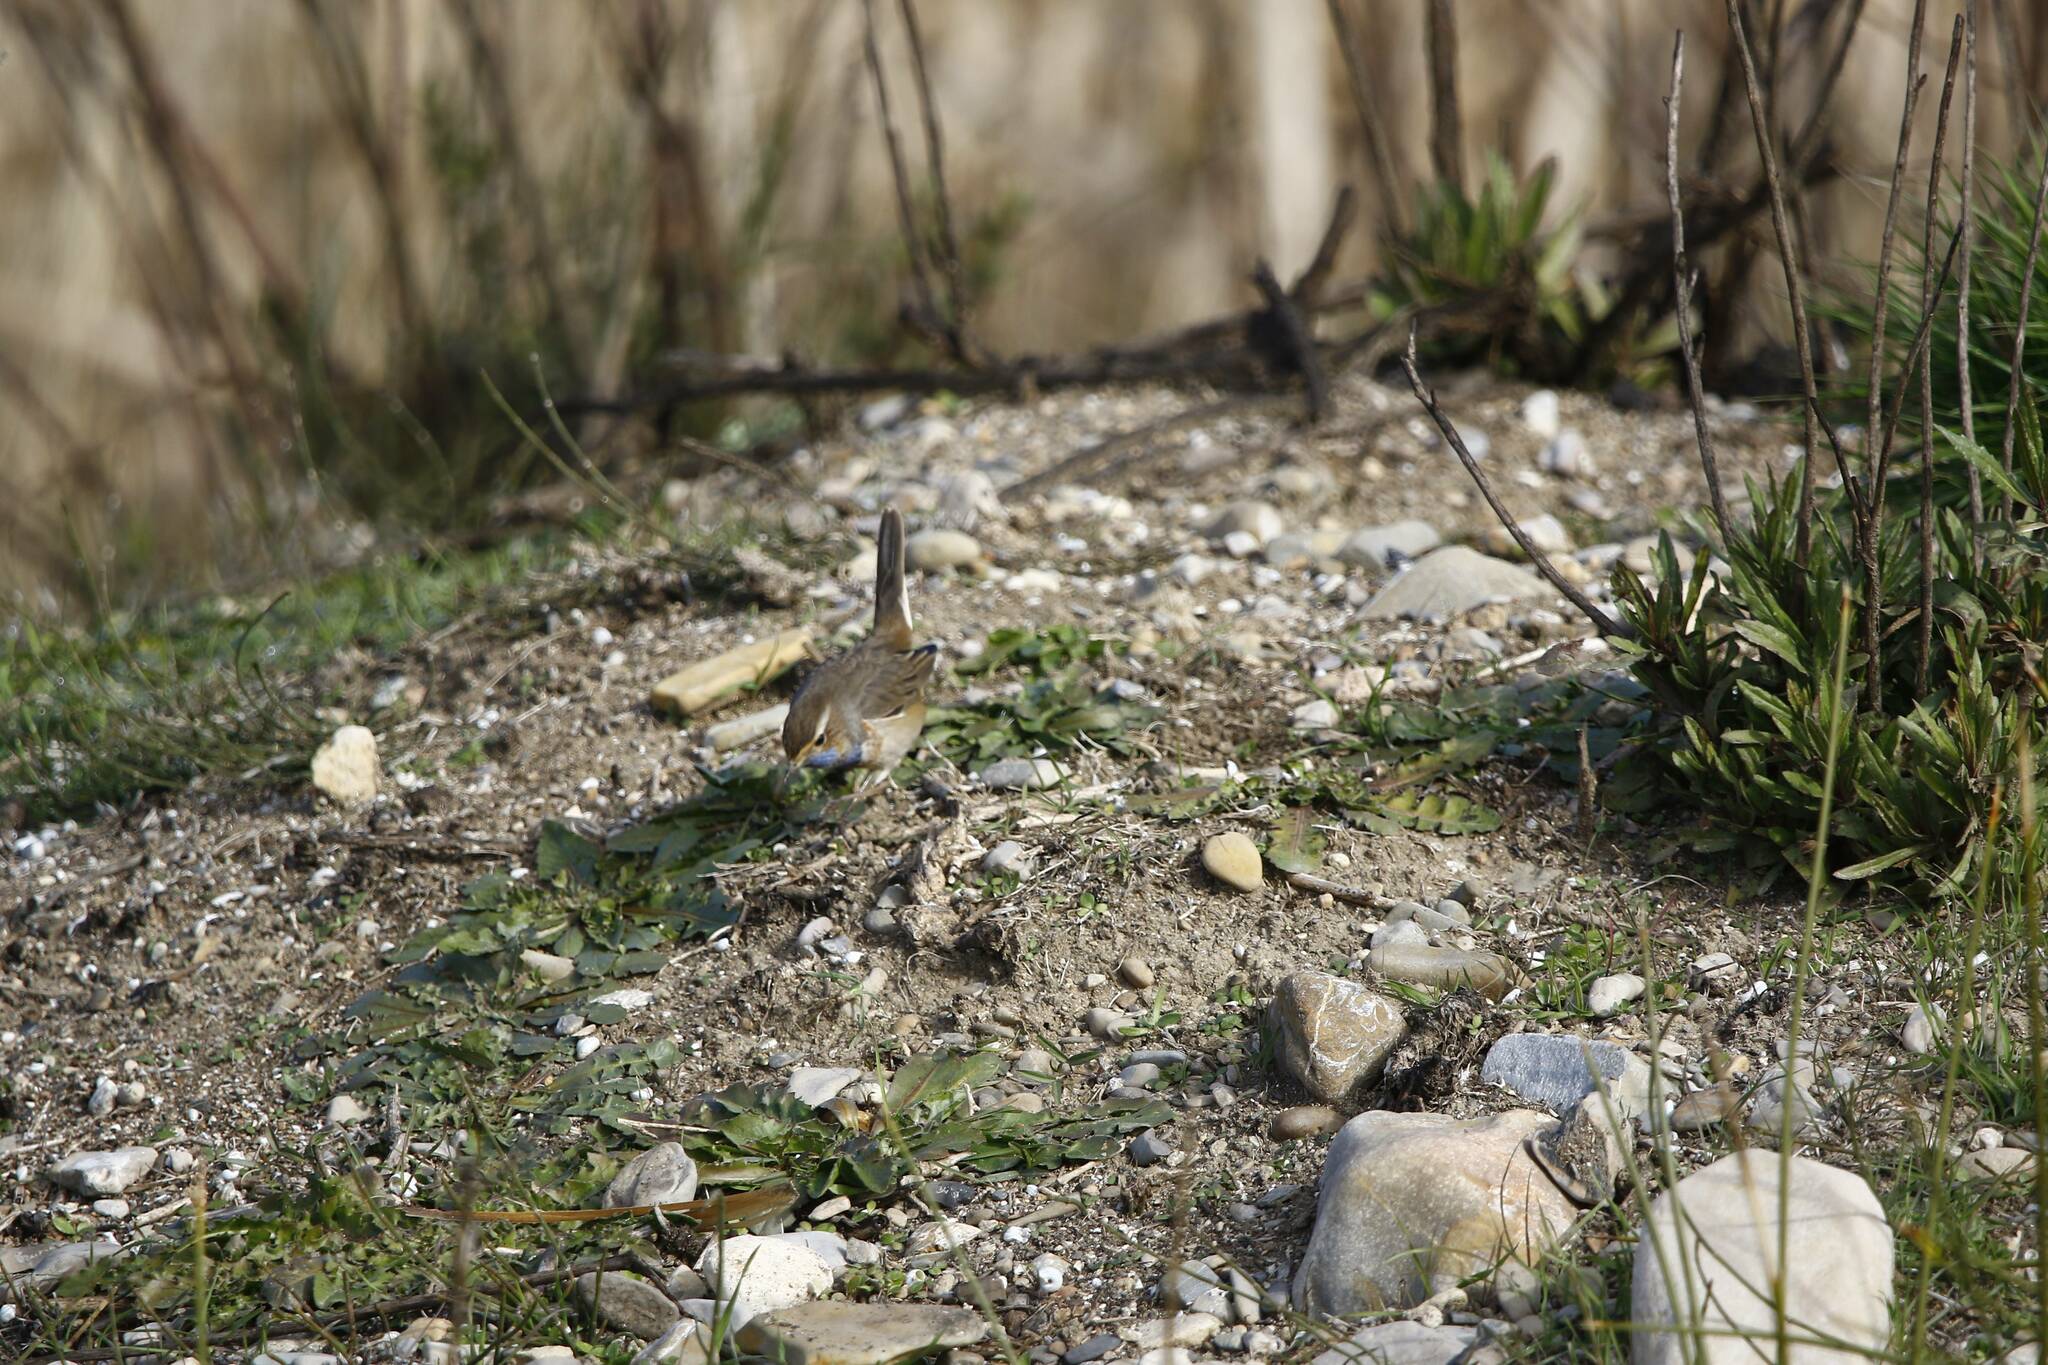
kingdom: Animalia
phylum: Chordata
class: Aves
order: Passeriformes
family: Muscicapidae
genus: Luscinia
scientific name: Luscinia svecica
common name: Bluethroat
